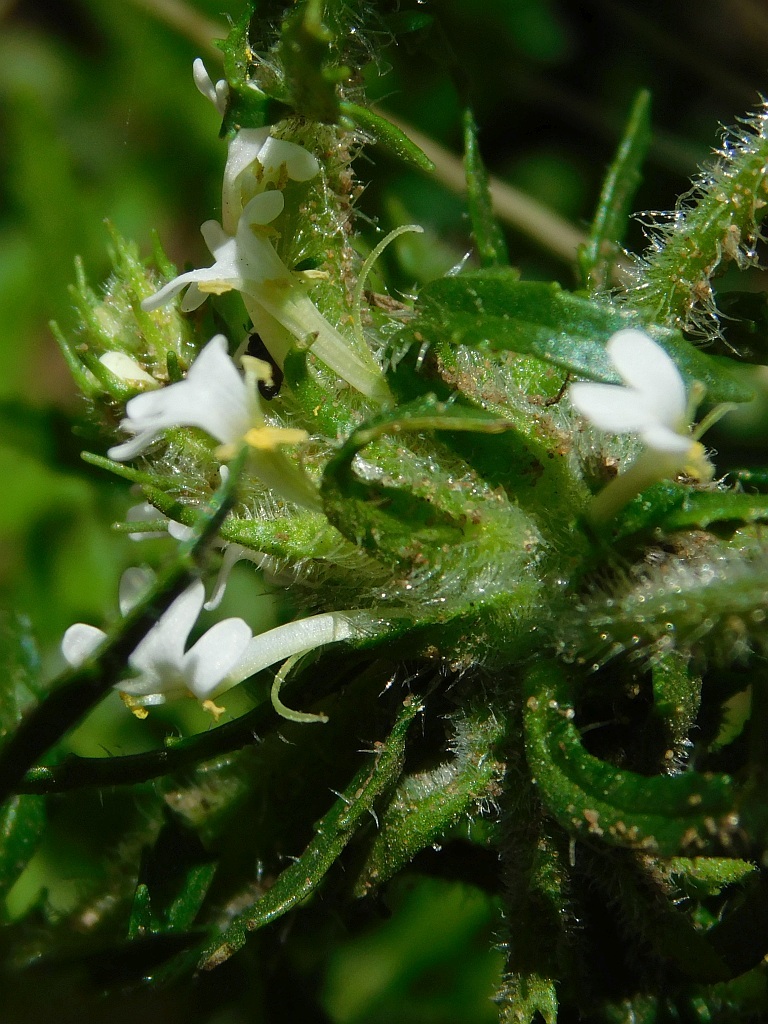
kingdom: Plantae
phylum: Tracheophyta
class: Magnoliopsida
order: Lamiales
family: Scrophulariaceae
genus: Dischisma
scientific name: Dischisma ciliatum
